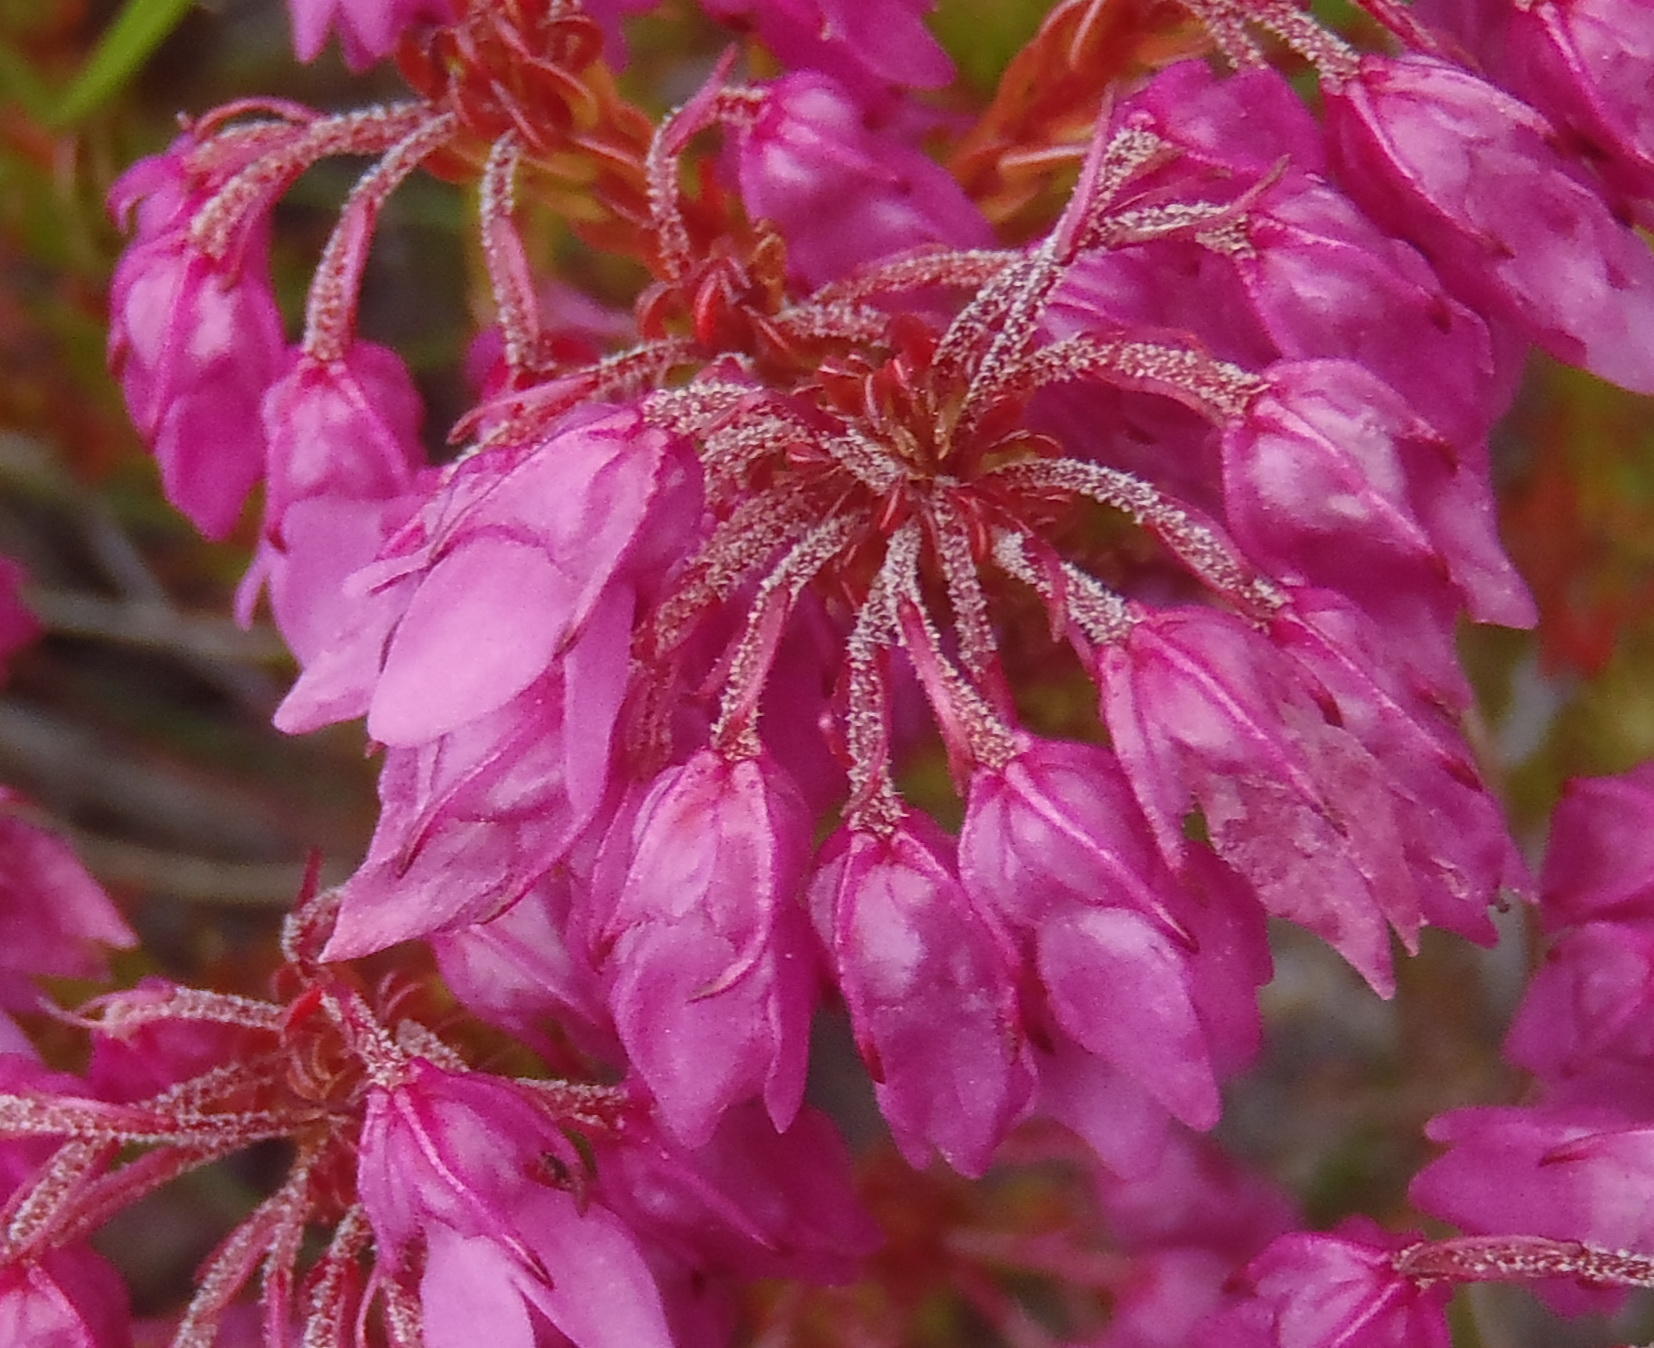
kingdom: Plantae
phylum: Tracheophyta
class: Magnoliopsida
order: Ericales
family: Ericaceae
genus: Erica
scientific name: Erica cubica
